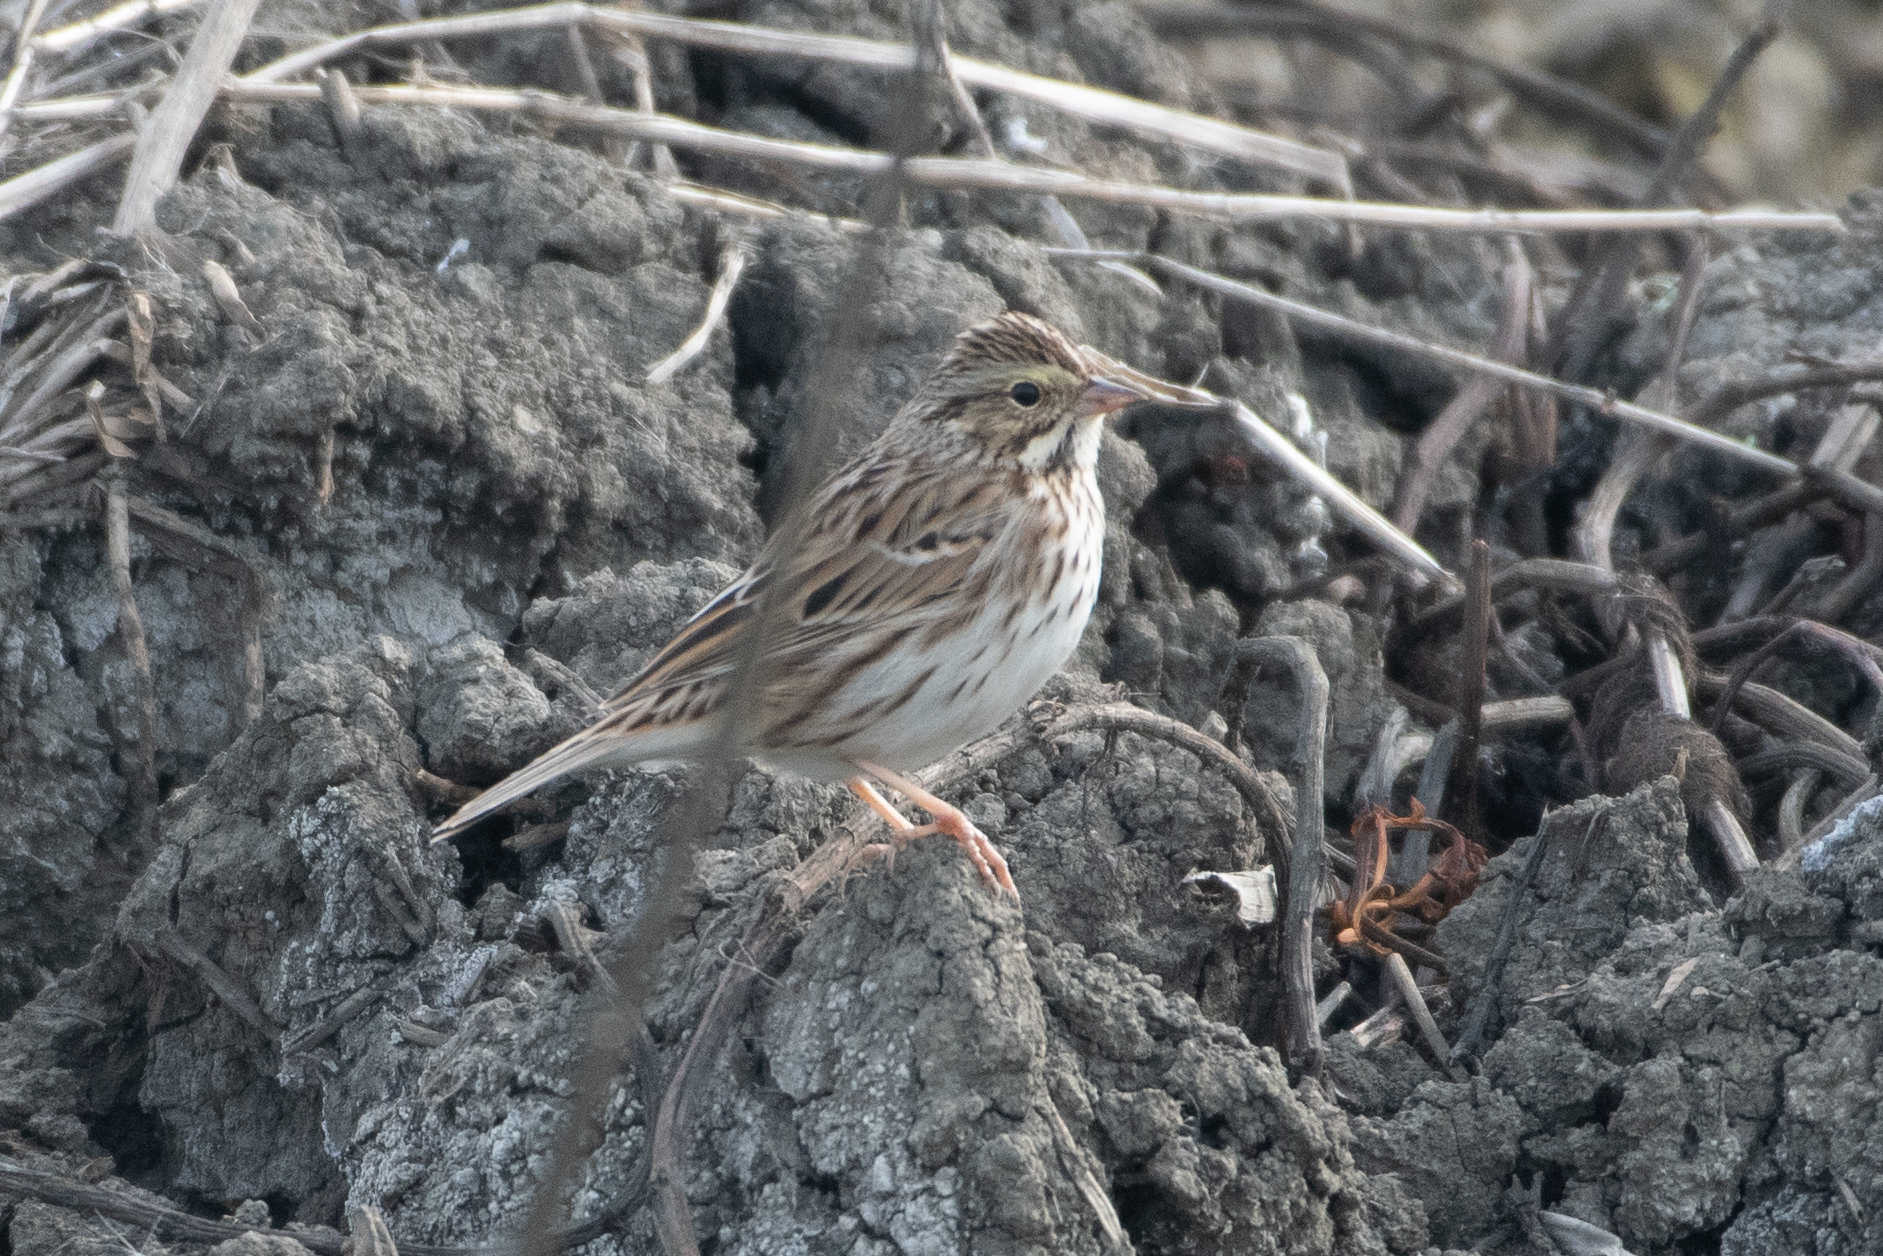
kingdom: Animalia
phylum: Chordata
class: Aves
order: Passeriformes
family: Passerellidae
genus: Passerculus
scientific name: Passerculus sandwichensis
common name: Savannah sparrow
